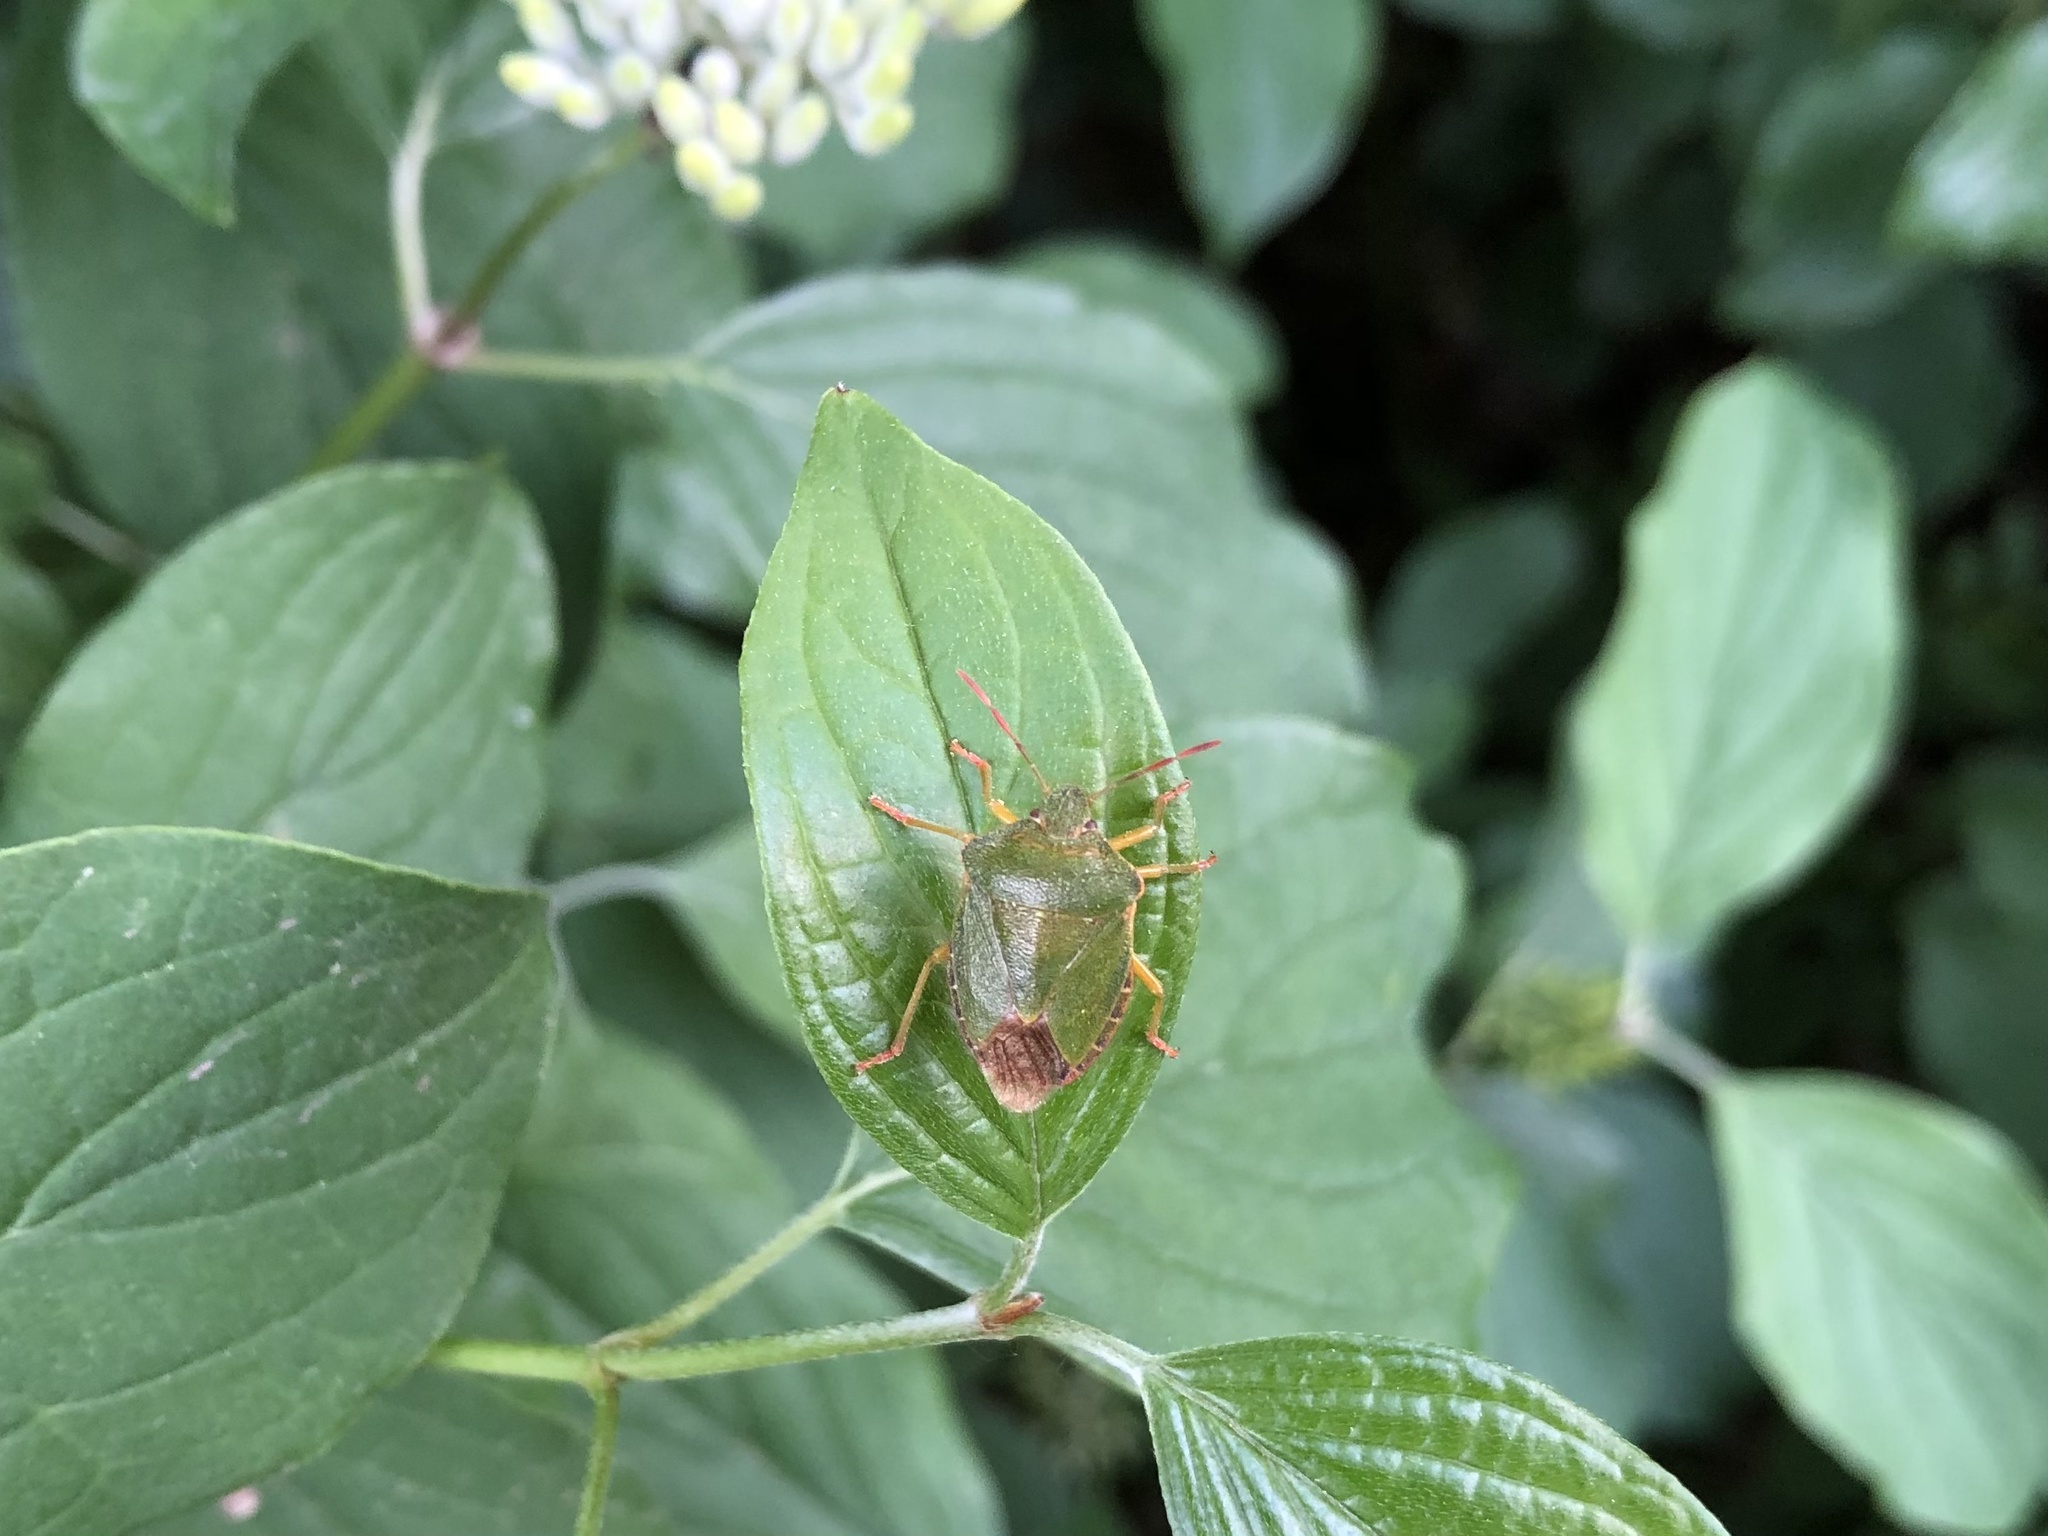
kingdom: Animalia
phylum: Arthropoda
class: Insecta
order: Hemiptera
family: Pentatomidae
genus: Palomena
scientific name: Palomena prasina
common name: Green shieldbug
